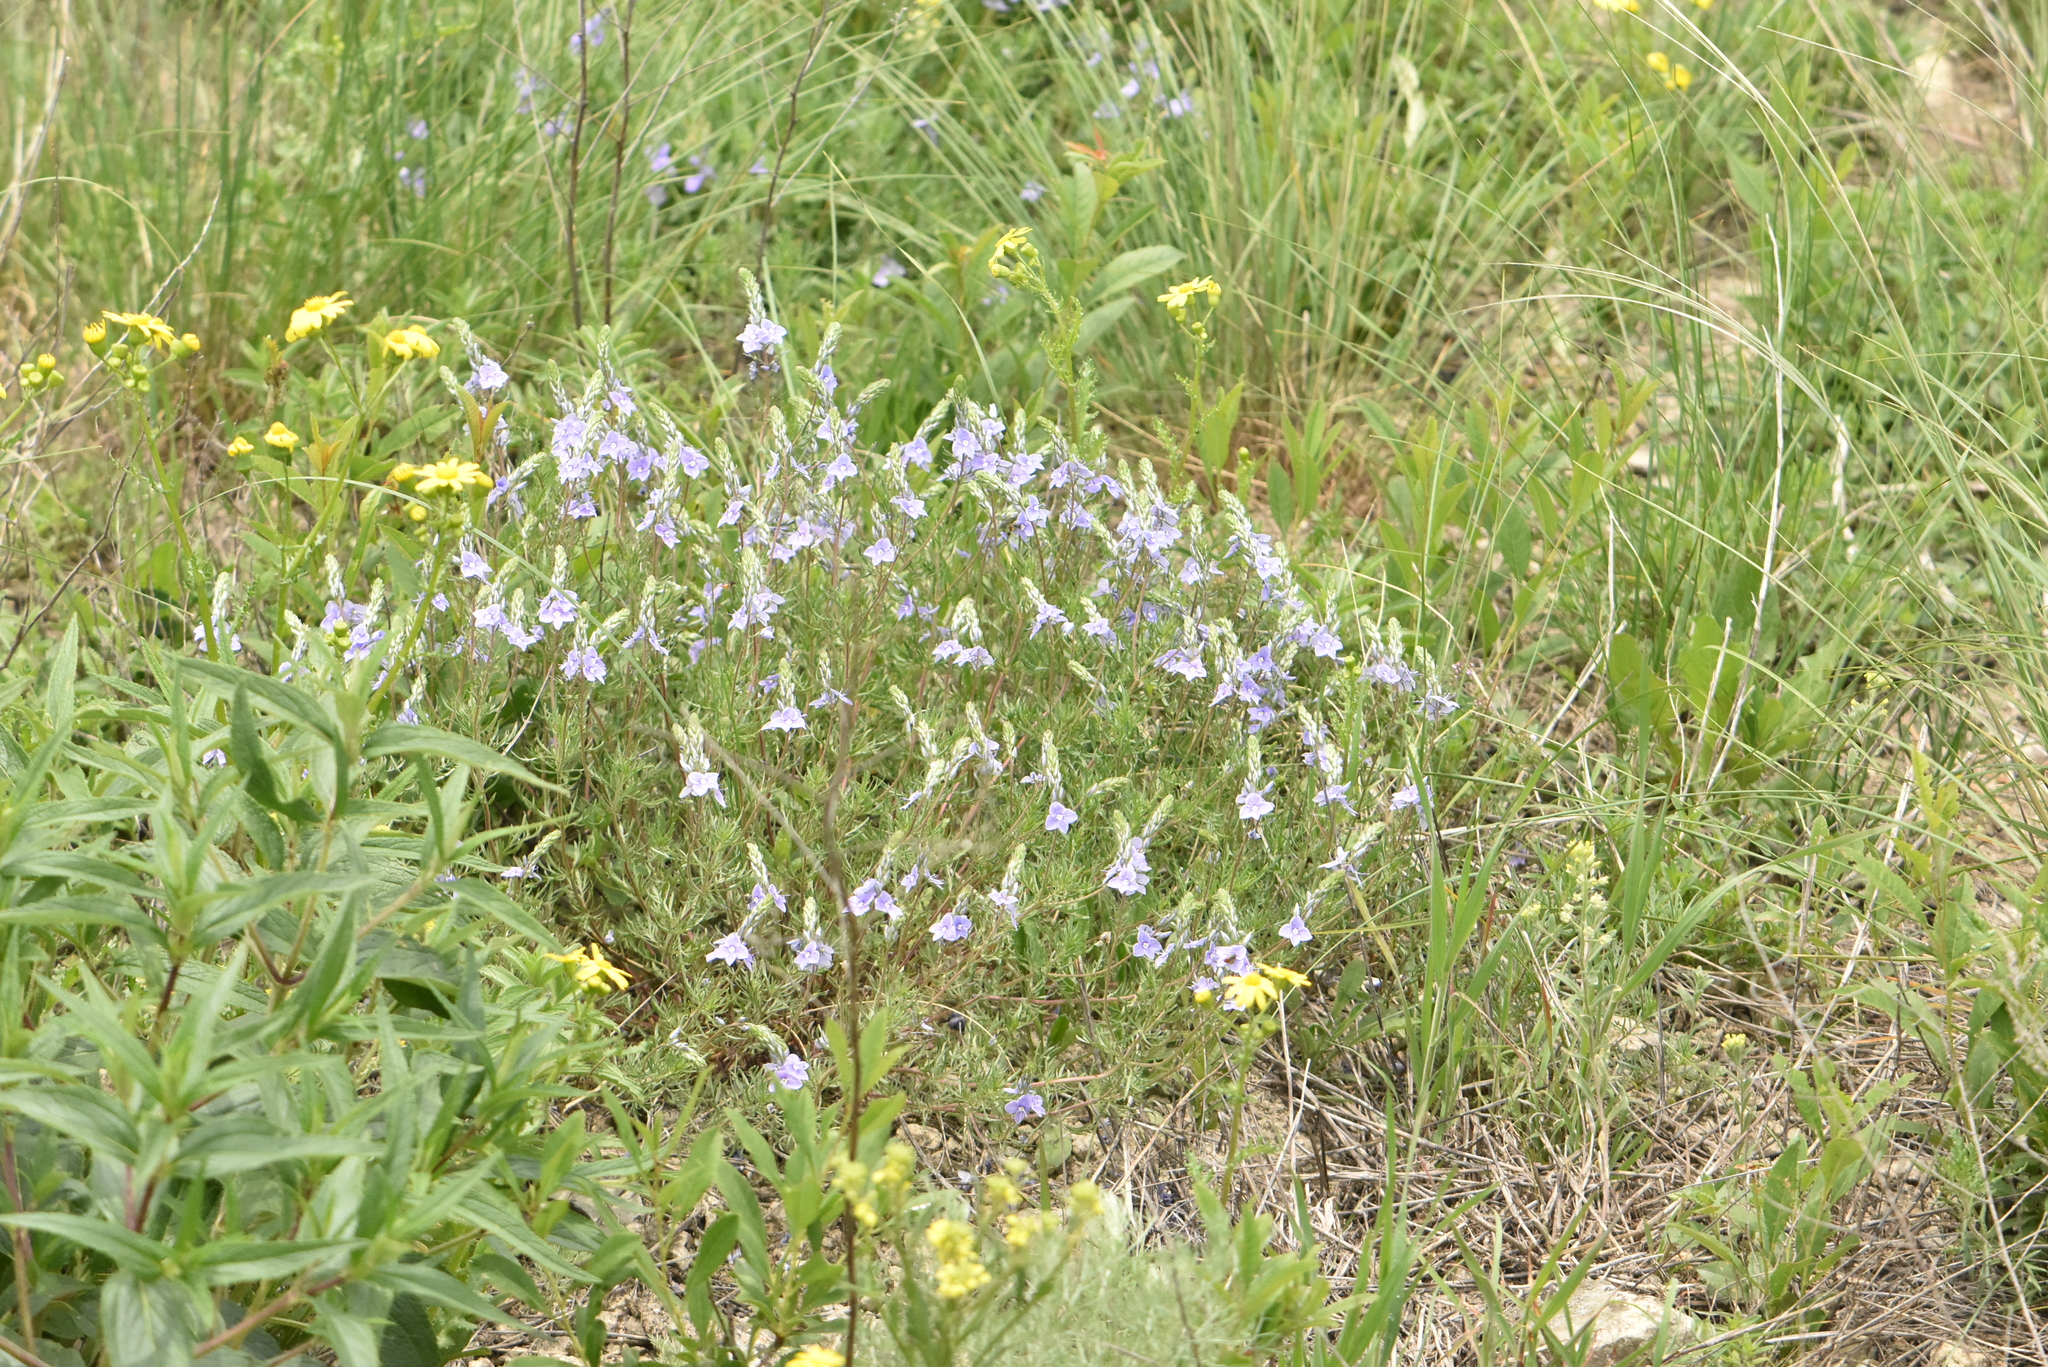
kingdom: Plantae
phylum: Tracheophyta
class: Magnoliopsida
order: Lamiales
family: Plantaginaceae
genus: Veronica
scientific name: Veronica multifida
